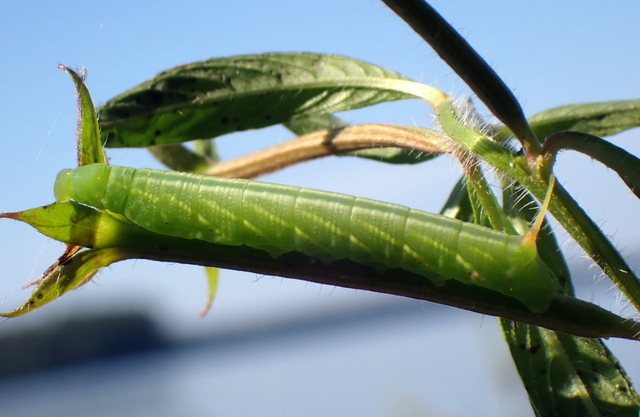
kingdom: Animalia
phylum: Arthropoda
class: Insecta
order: Lepidoptera
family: Sphingidae
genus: Eumorpha
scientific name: Eumorpha fasciatus
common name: Banded sphinx
